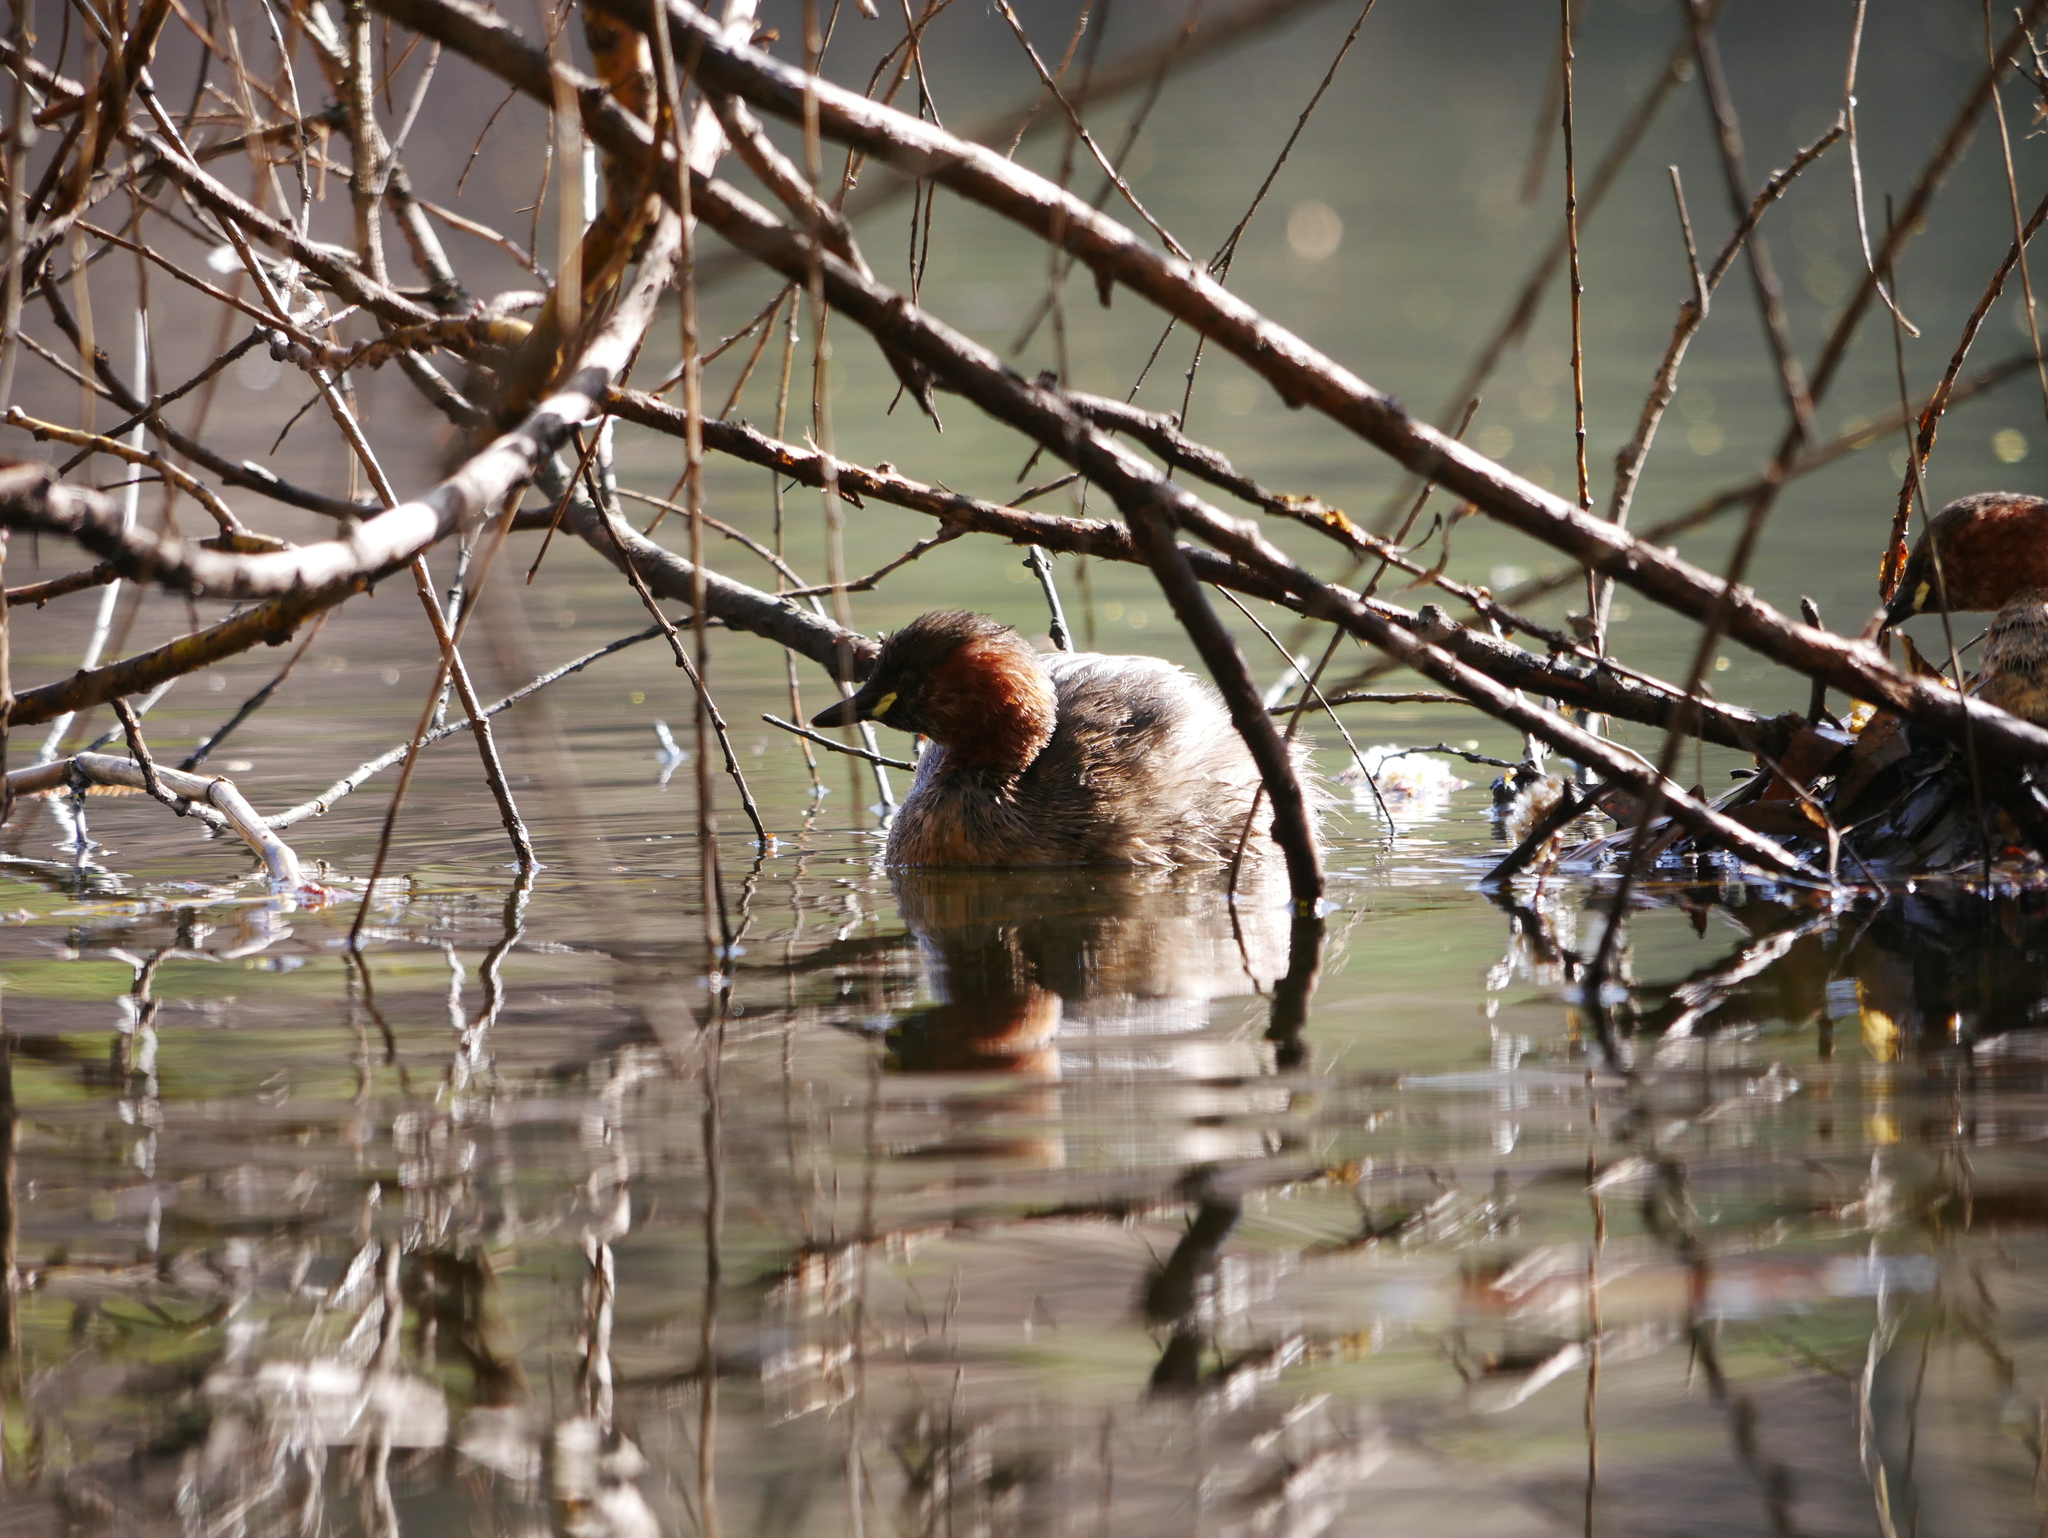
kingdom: Animalia
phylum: Chordata
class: Aves
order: Podicipediformes
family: Podicipedidae
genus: Tachybaptus
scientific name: Tachybaptus ruficollis
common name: Little grebe
